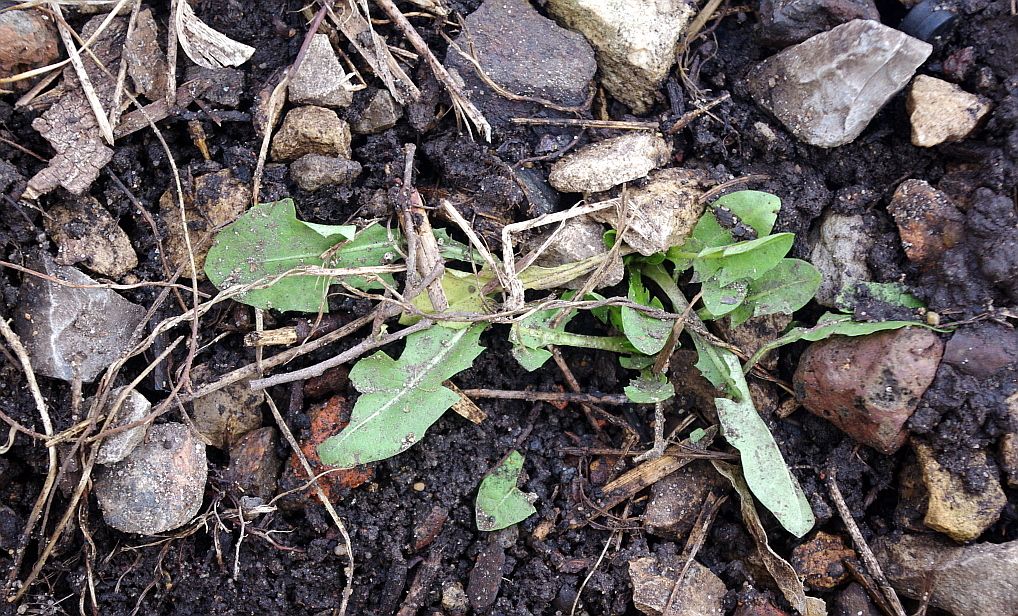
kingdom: Plantae
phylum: Tracheophyta
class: Magnoliopsida
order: Asterales
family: Asteraceae
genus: Taraxacum
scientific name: Taraxacum officinale
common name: Common dandelion
